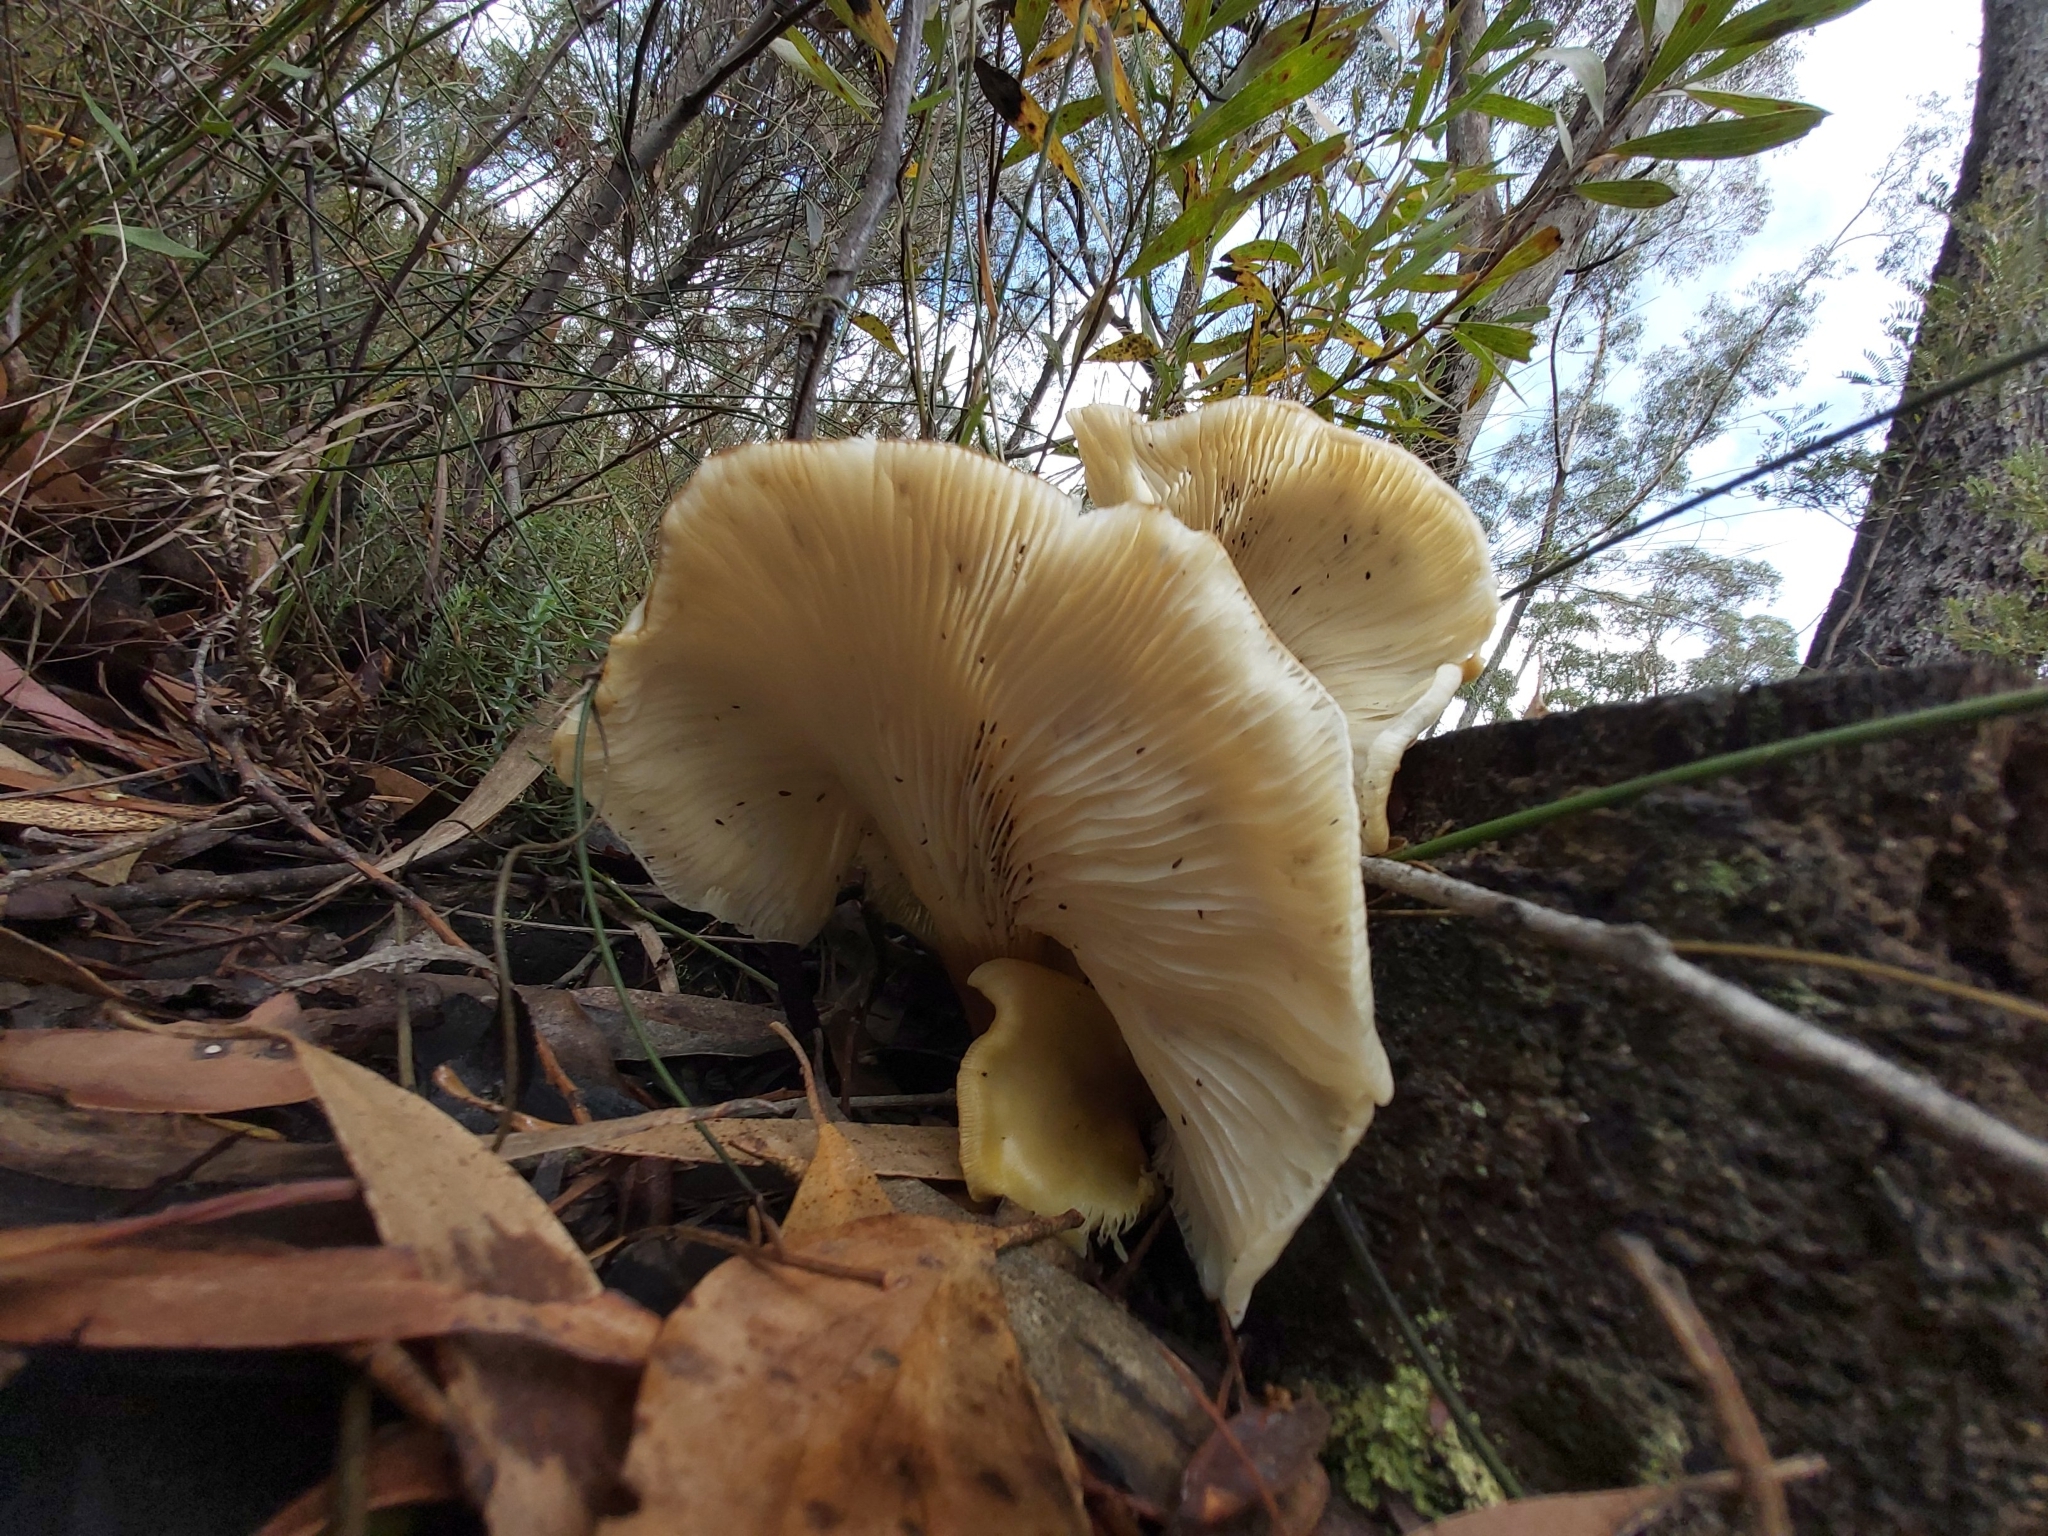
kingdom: Fungi
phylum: Basidiomycota
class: Agaricomycetes
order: Agaricales
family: Omphalotaceae
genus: Omphalotus
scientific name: Omphalotus nidiformis
